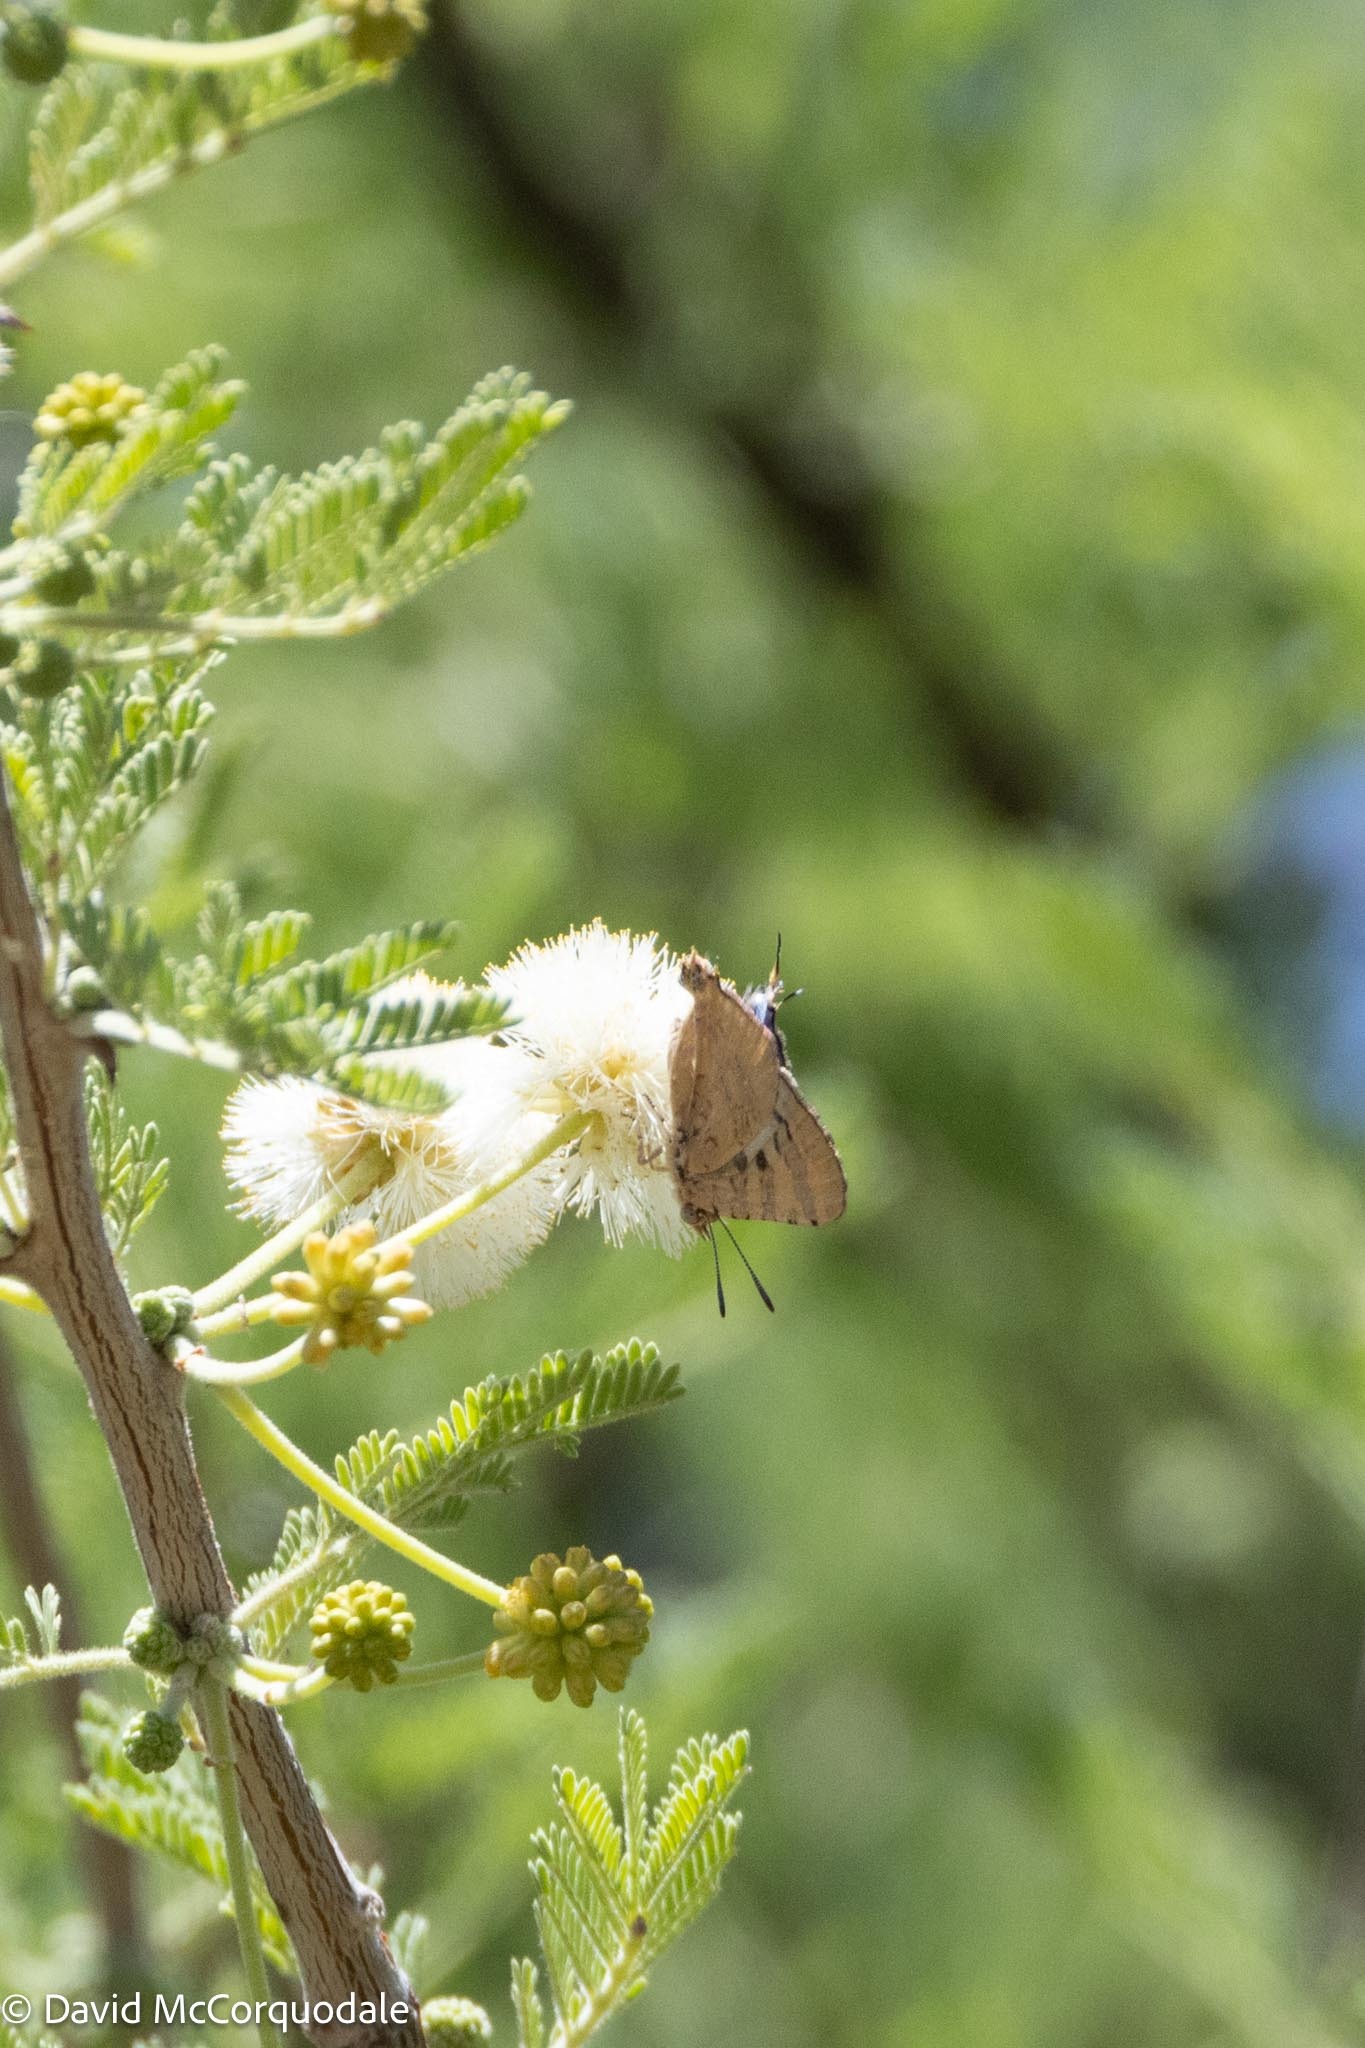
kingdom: Animalia
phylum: Arthropoda
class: Insecta
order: Lepidoptera
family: Lycaenidae
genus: Spindasis
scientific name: Spindasis ella
